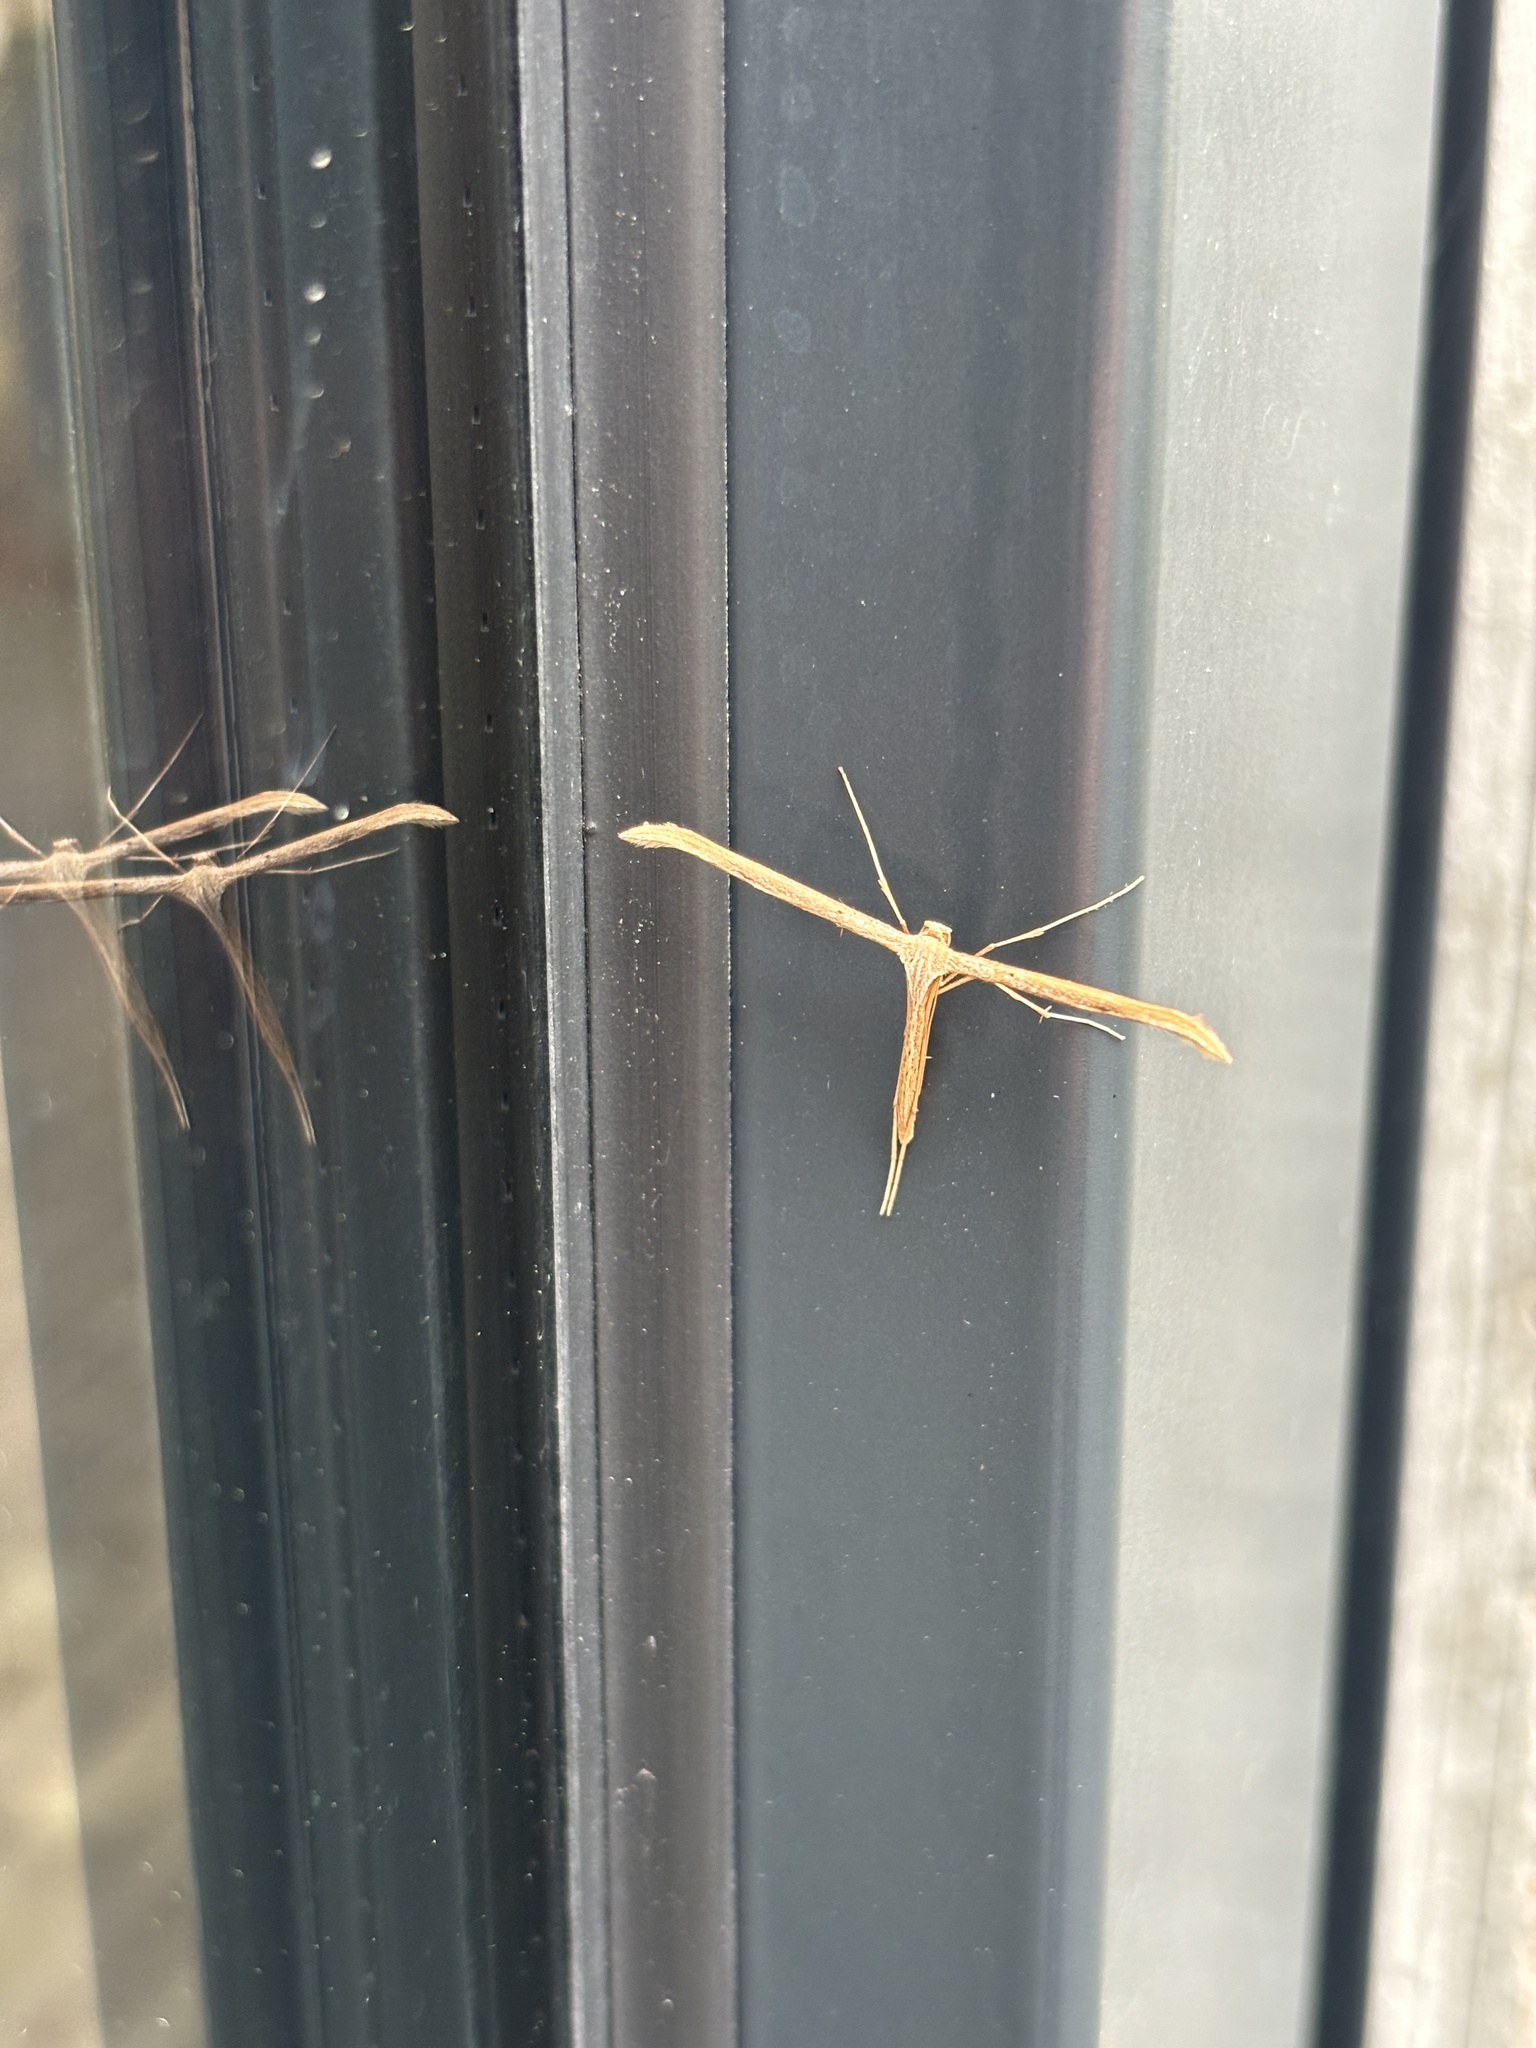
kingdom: Animalia
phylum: Arthropoda
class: Insecta
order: Lepidoptera
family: Pterophoridae
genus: Emmelina
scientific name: Emmelina monodactyla
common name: Common plume
